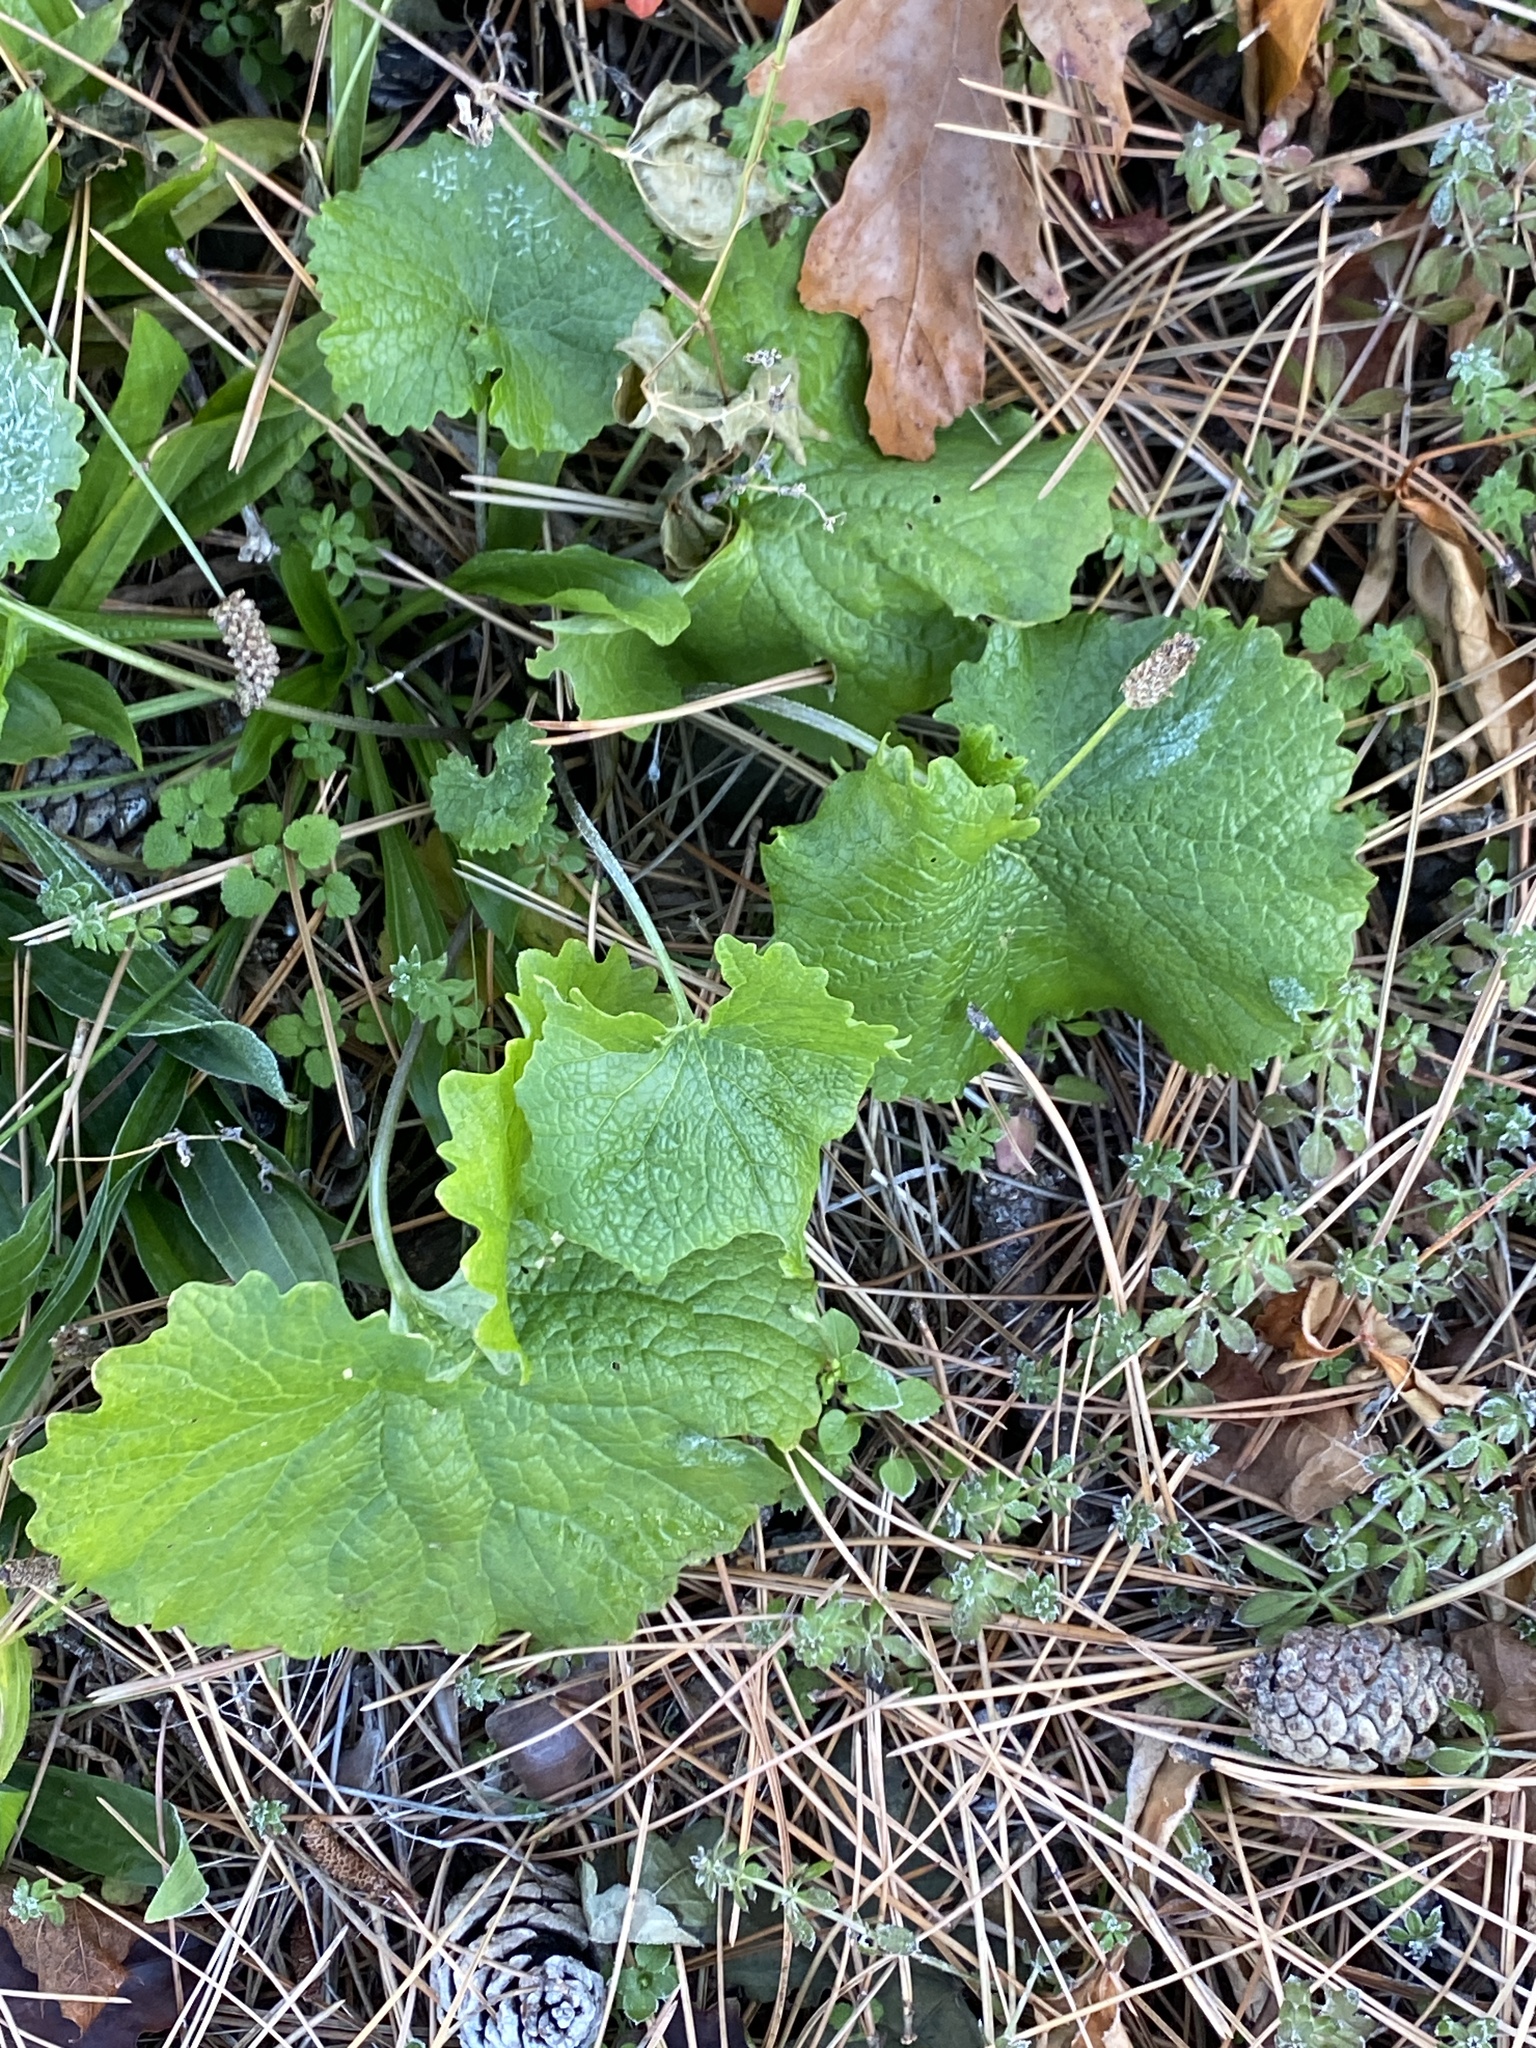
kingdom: Plantae
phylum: Tracheophyta
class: Magnoliopsida
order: Brassicales
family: Brassicaceae
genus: Alliaria
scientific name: Alliaria petiolata
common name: Garlic mustard
